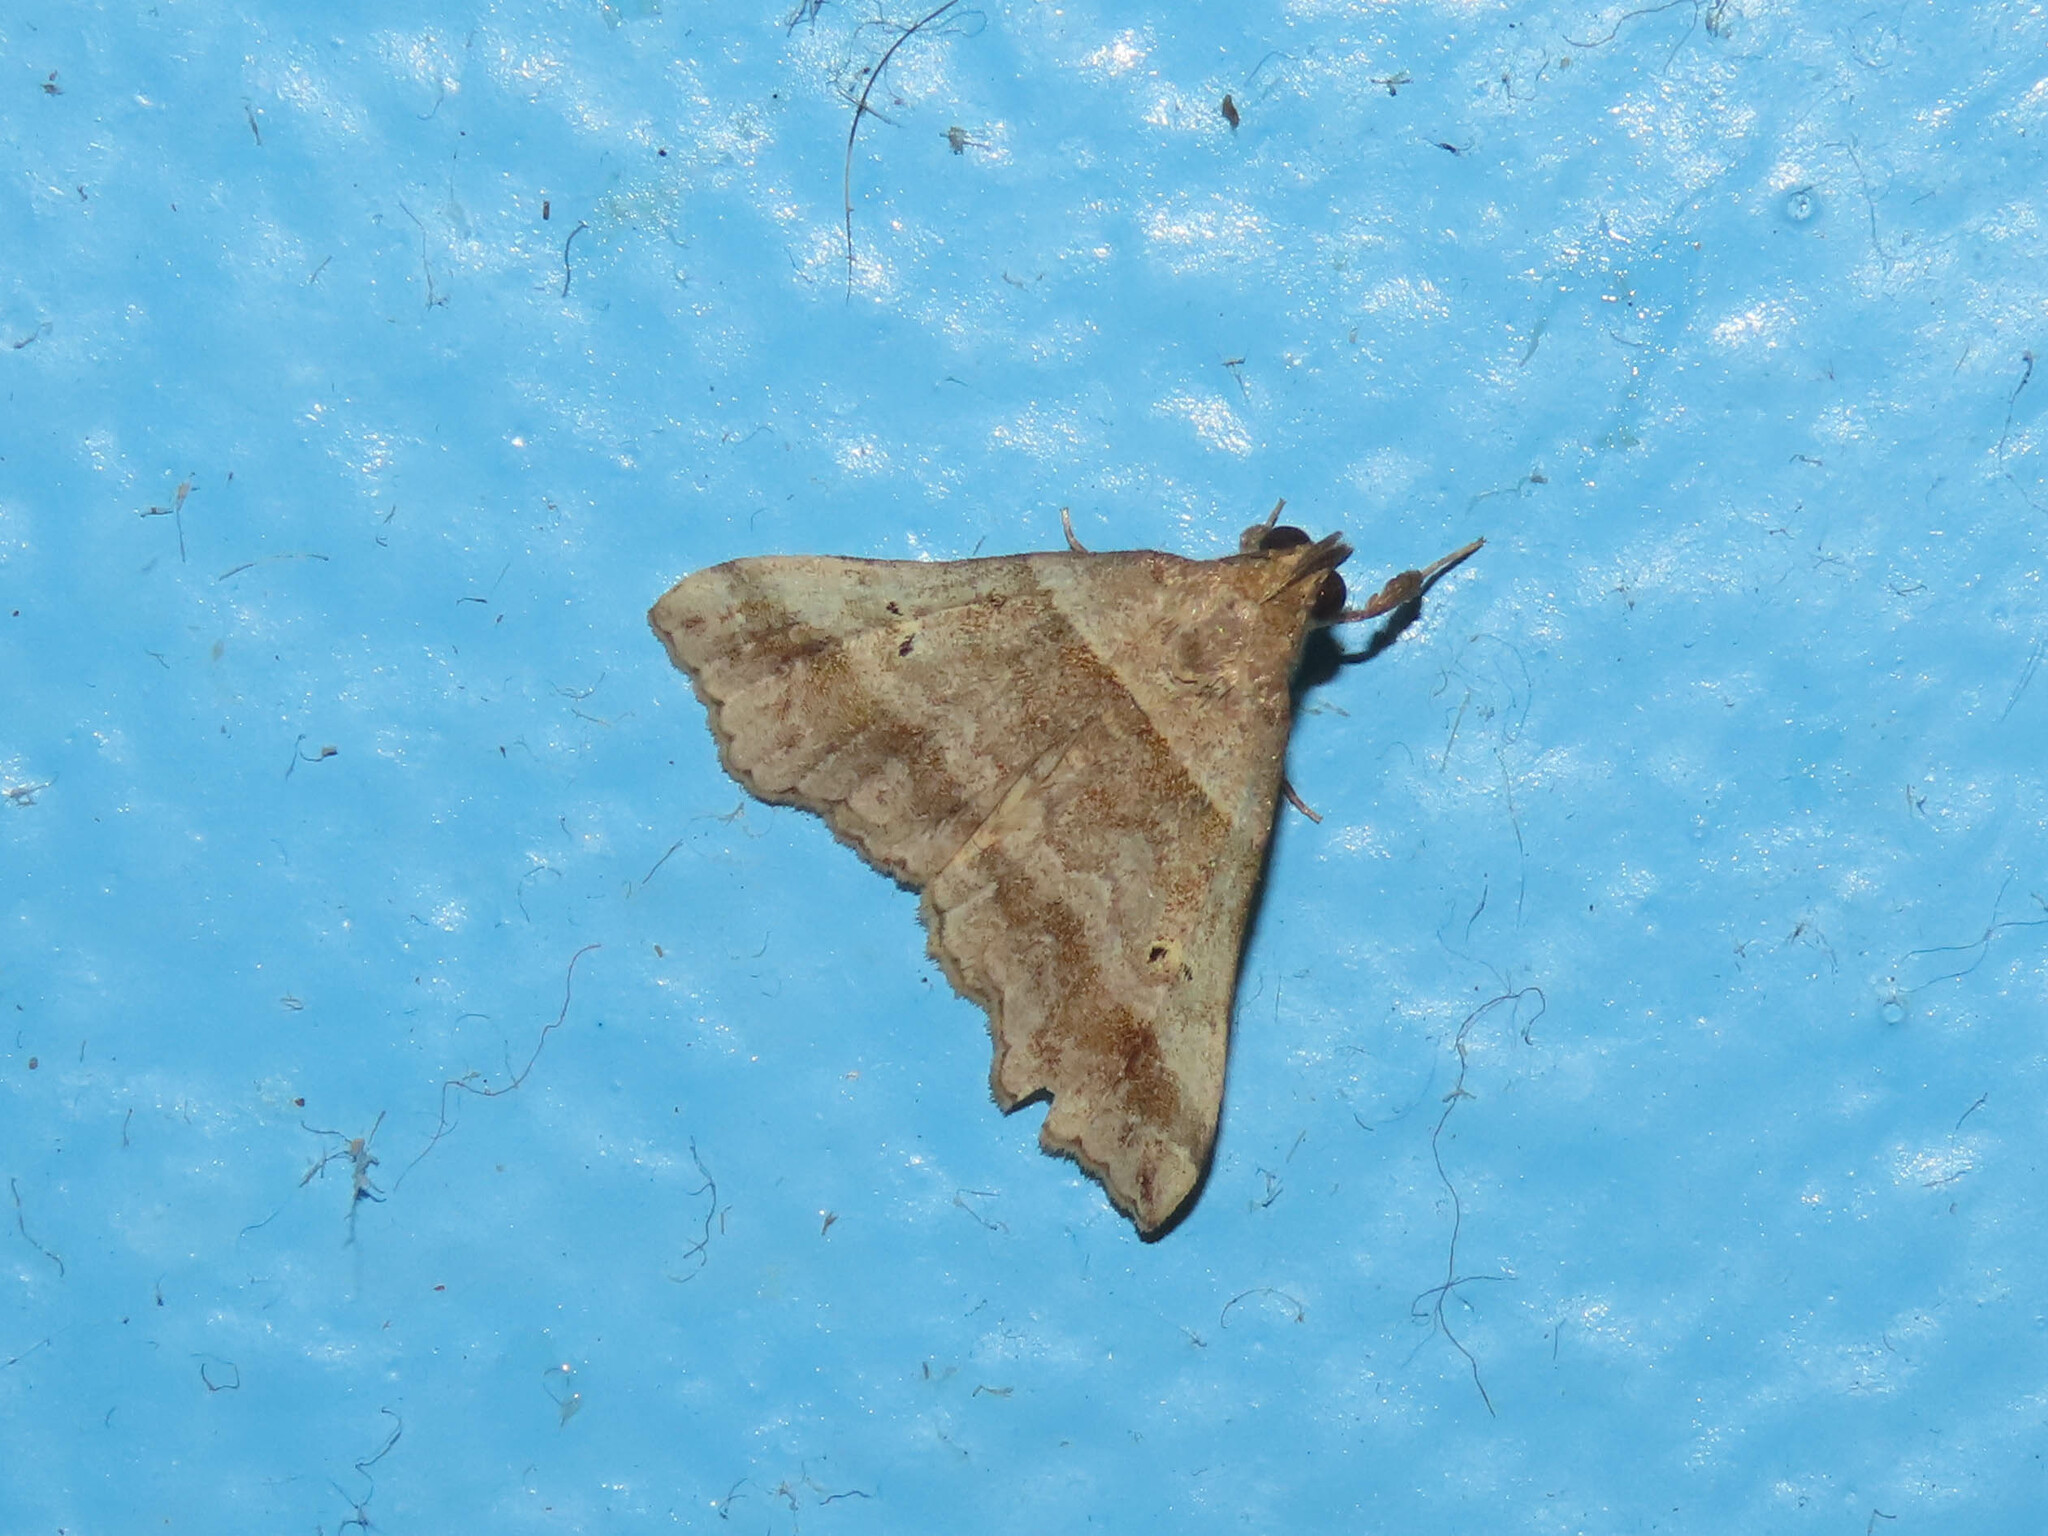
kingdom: Animalia
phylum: Arthropoda
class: Insecta
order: Lepidoptera
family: Erebidae
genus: Phaeolita
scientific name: Phaeolita pyramusalis
